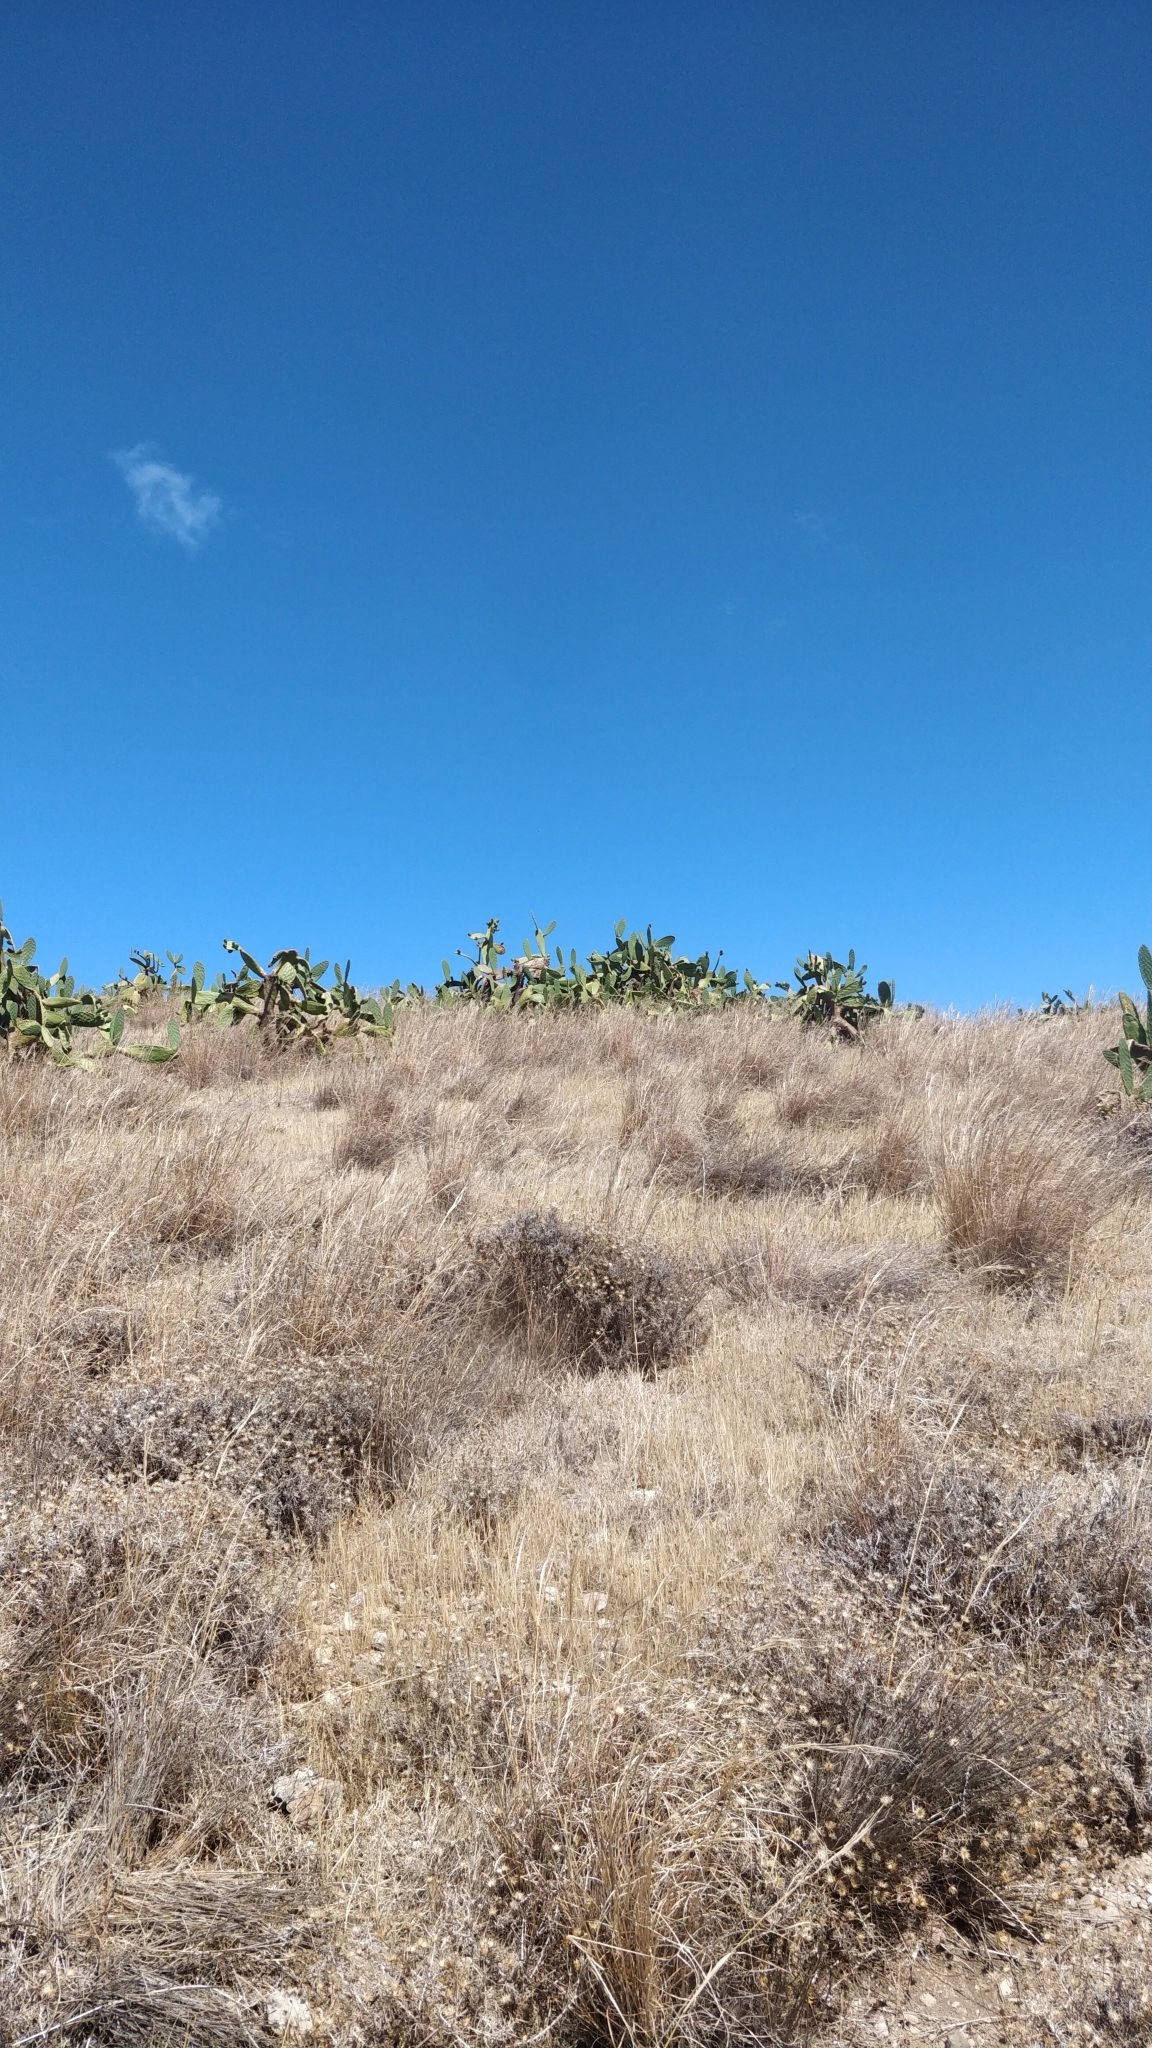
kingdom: Plantae
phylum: Tracheophyta
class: Magnoliopsida
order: Caryophyllales
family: Cactaceae
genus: Opuntia
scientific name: Opuntia ficus-indica
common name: Barbary fig
